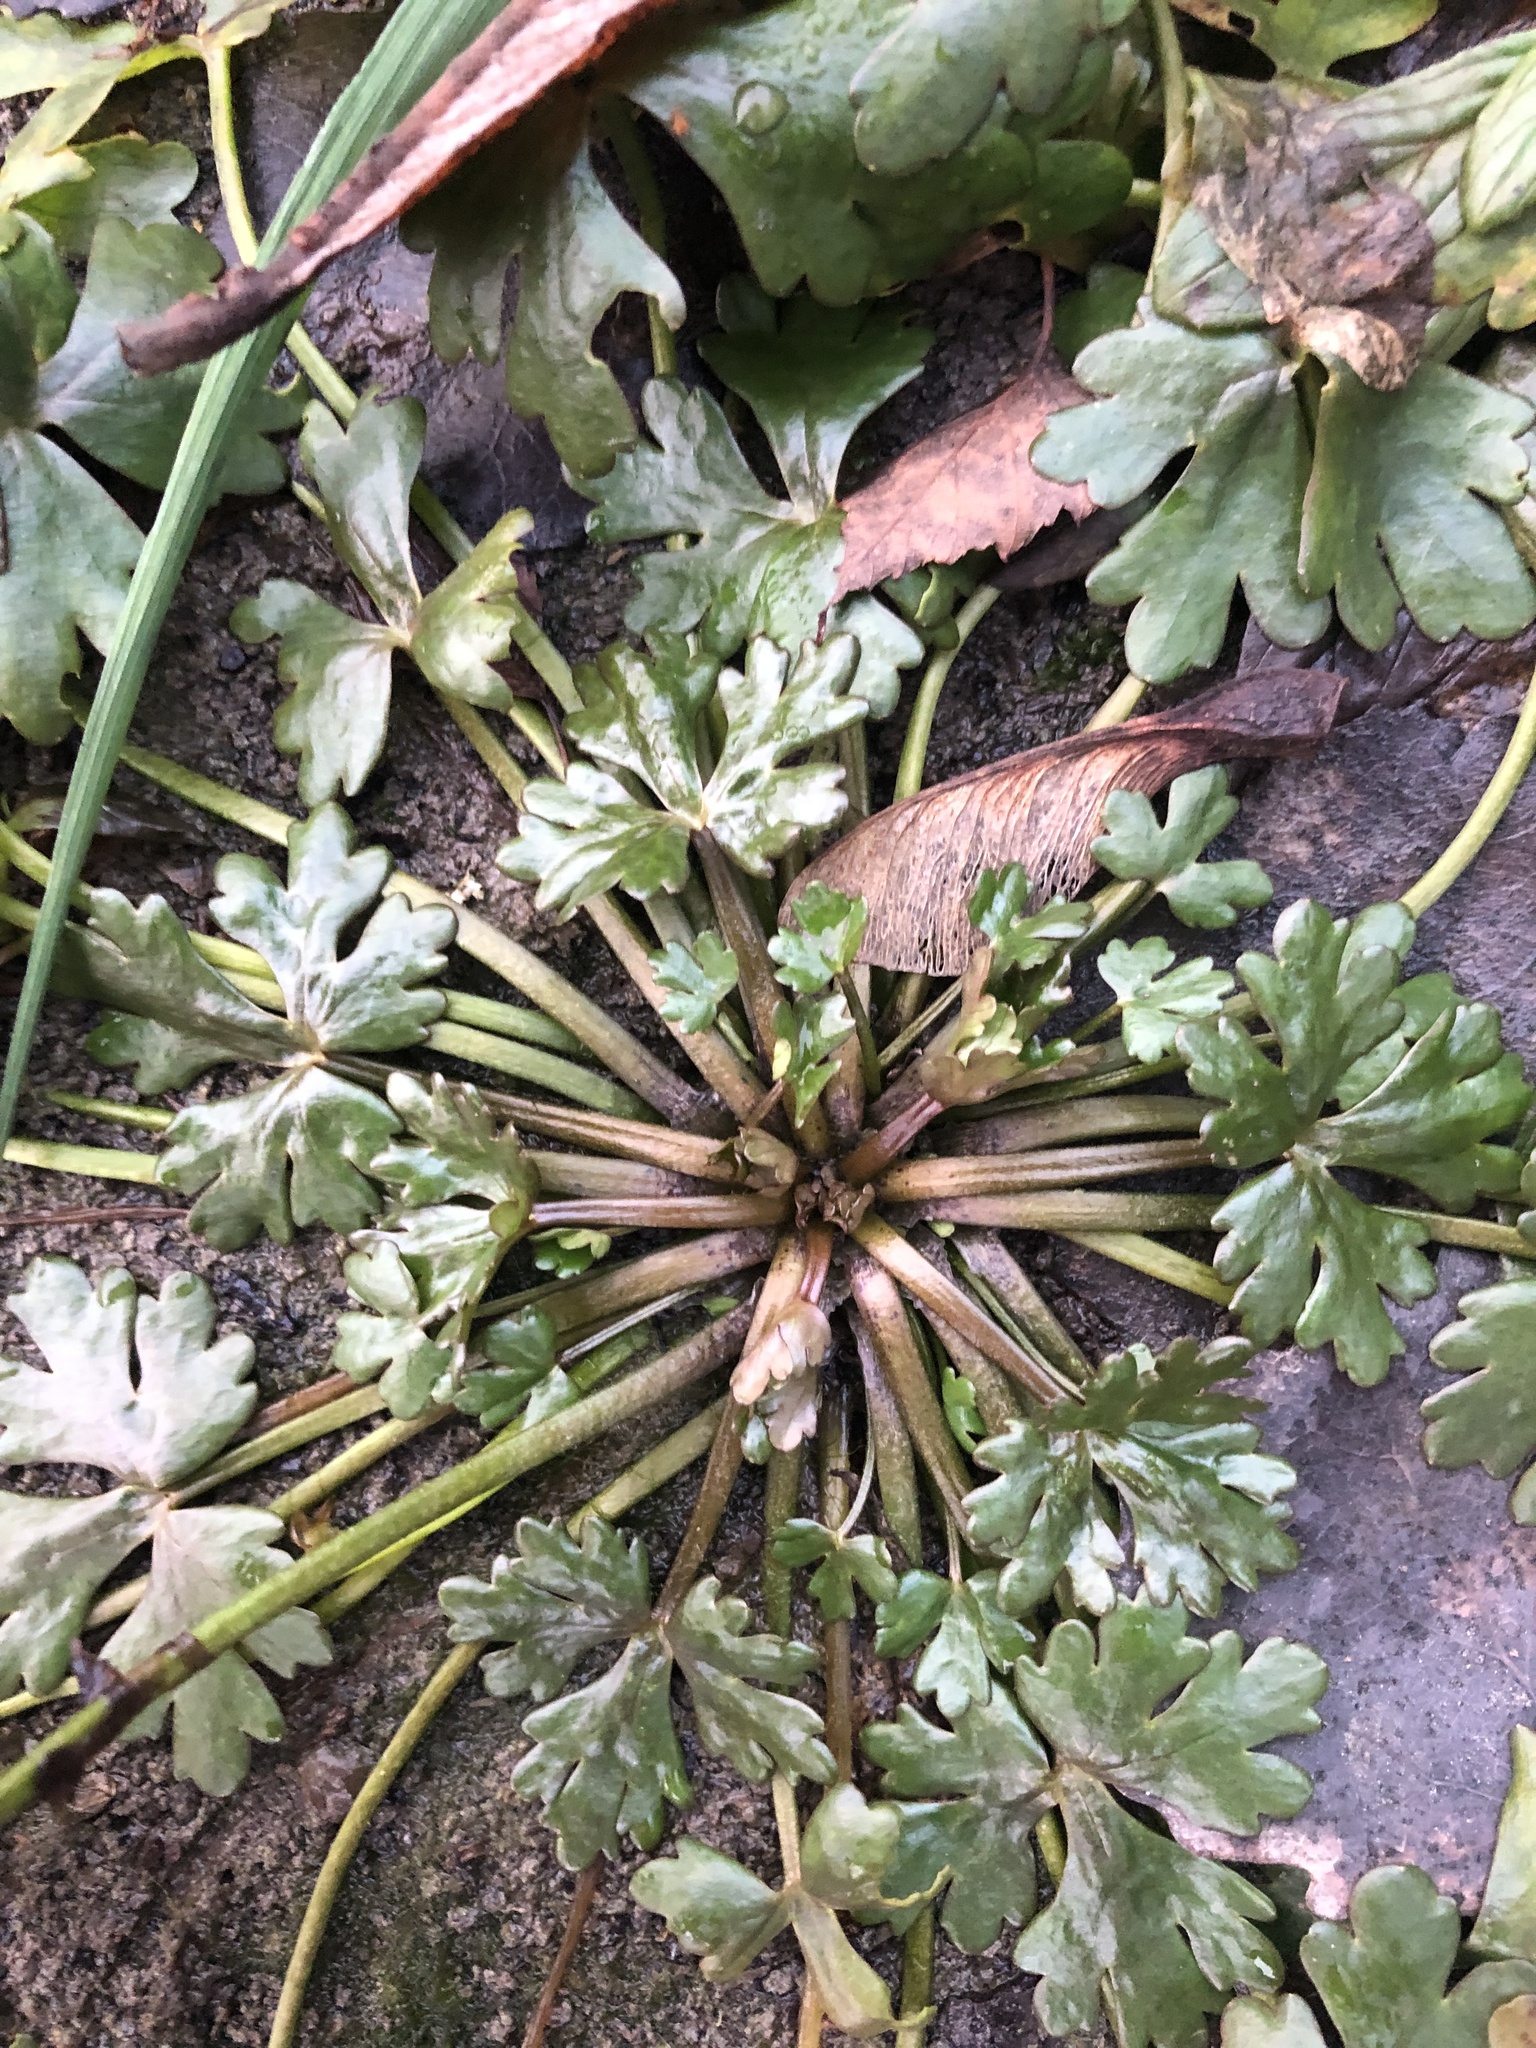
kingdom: Plantae
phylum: Tracheophyta
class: Magnoliopsida
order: Ranunculales
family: Ranunculaceae
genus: Ranunculus
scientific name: Ranunculus sceleratus
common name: Celery-leaved buttercup
